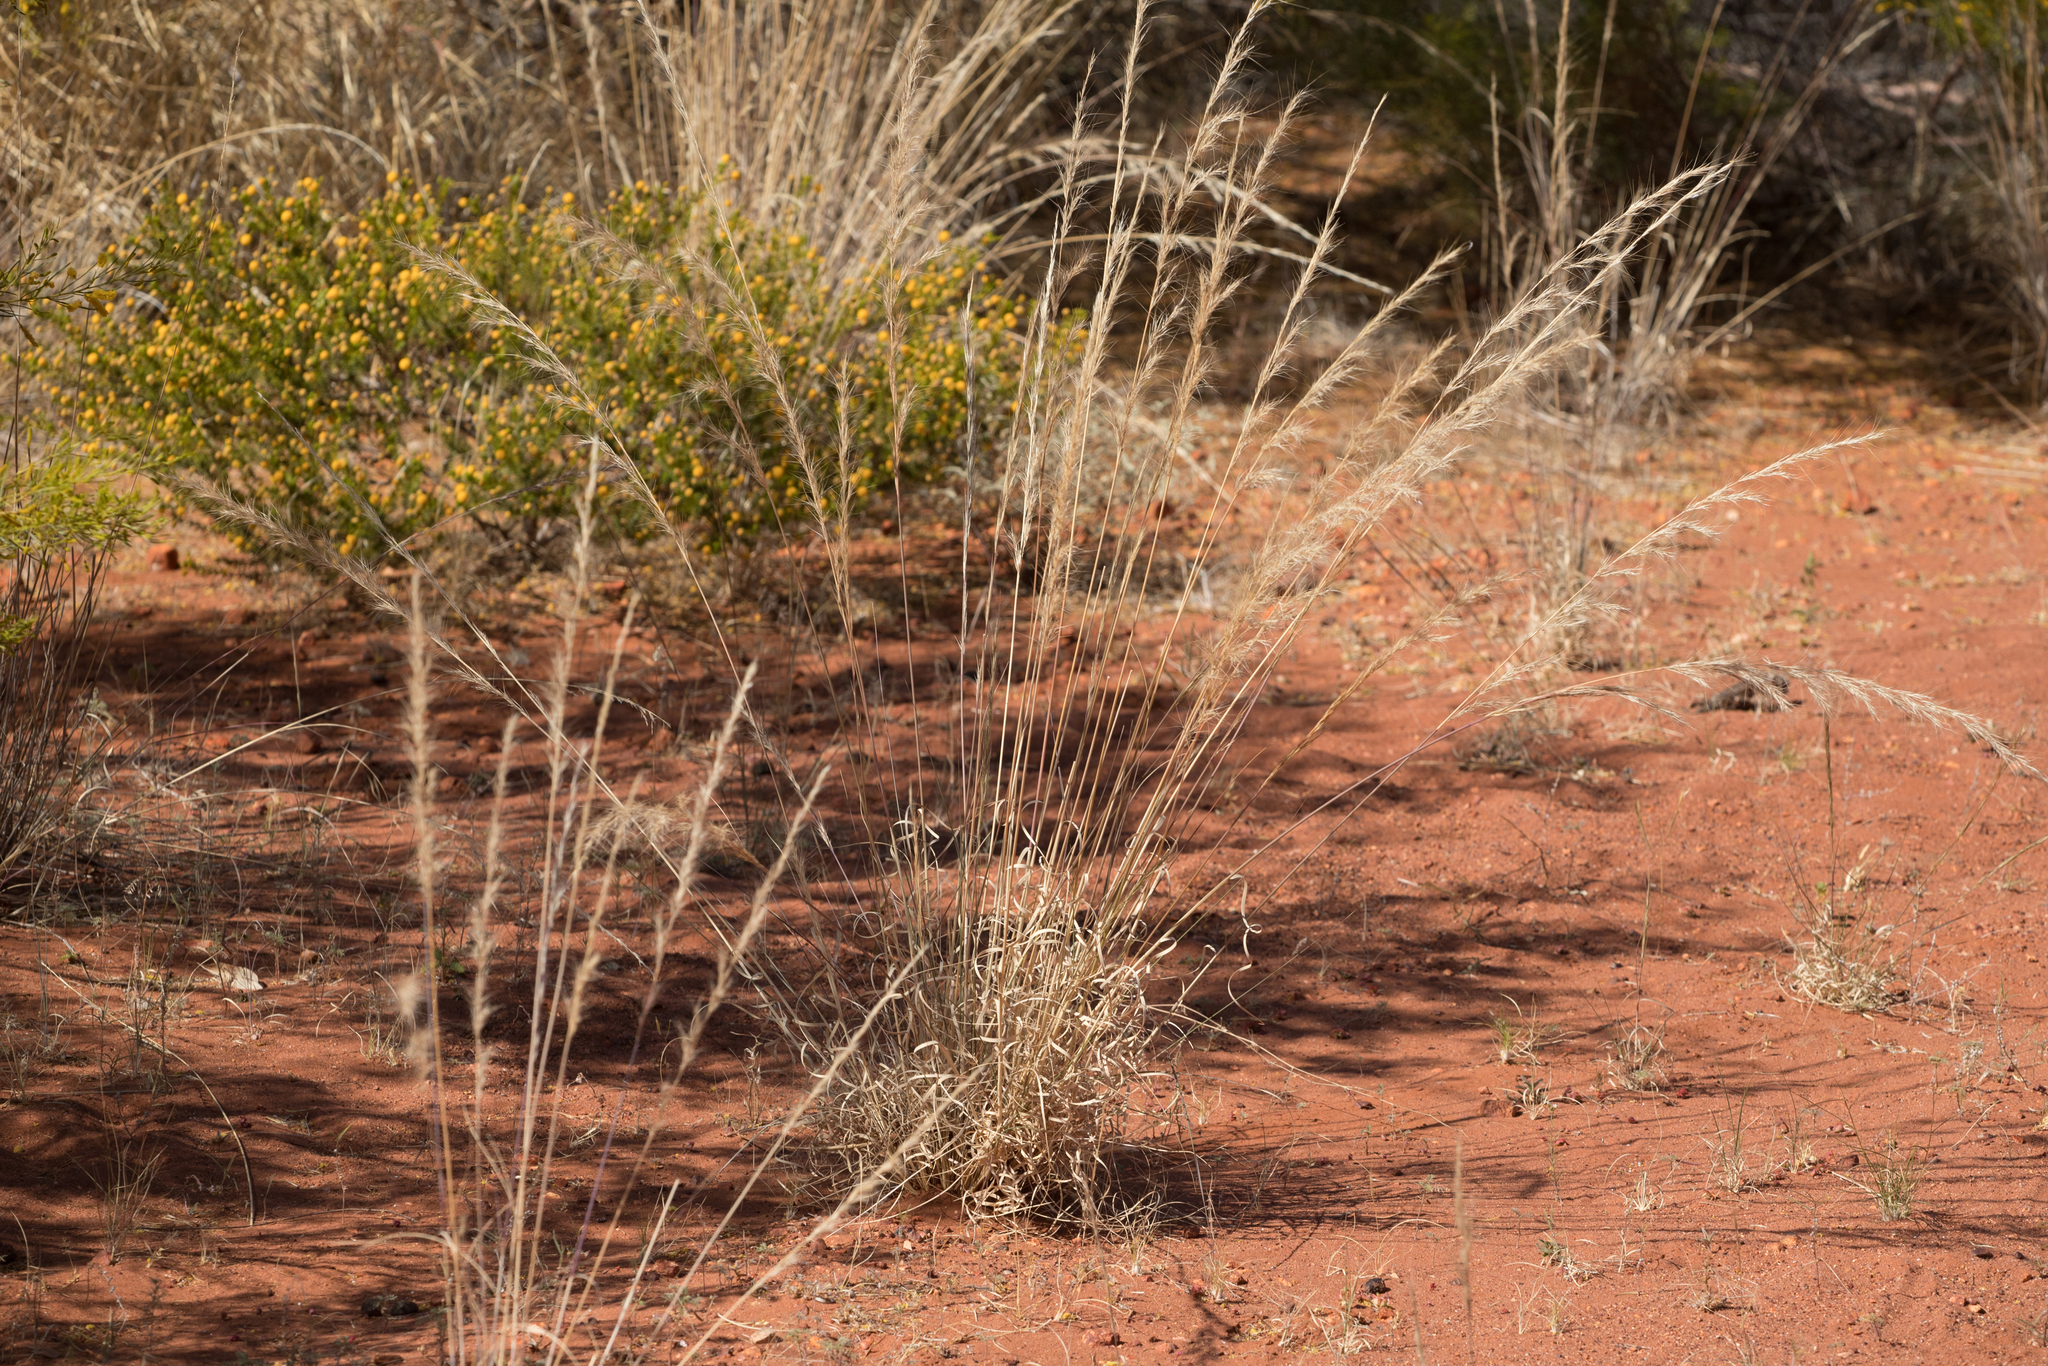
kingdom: Plantae
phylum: Tracheophyta
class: Liliopsida
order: Poales
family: Poaceae
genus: Aristida
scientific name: Aristida inaequiglumis
